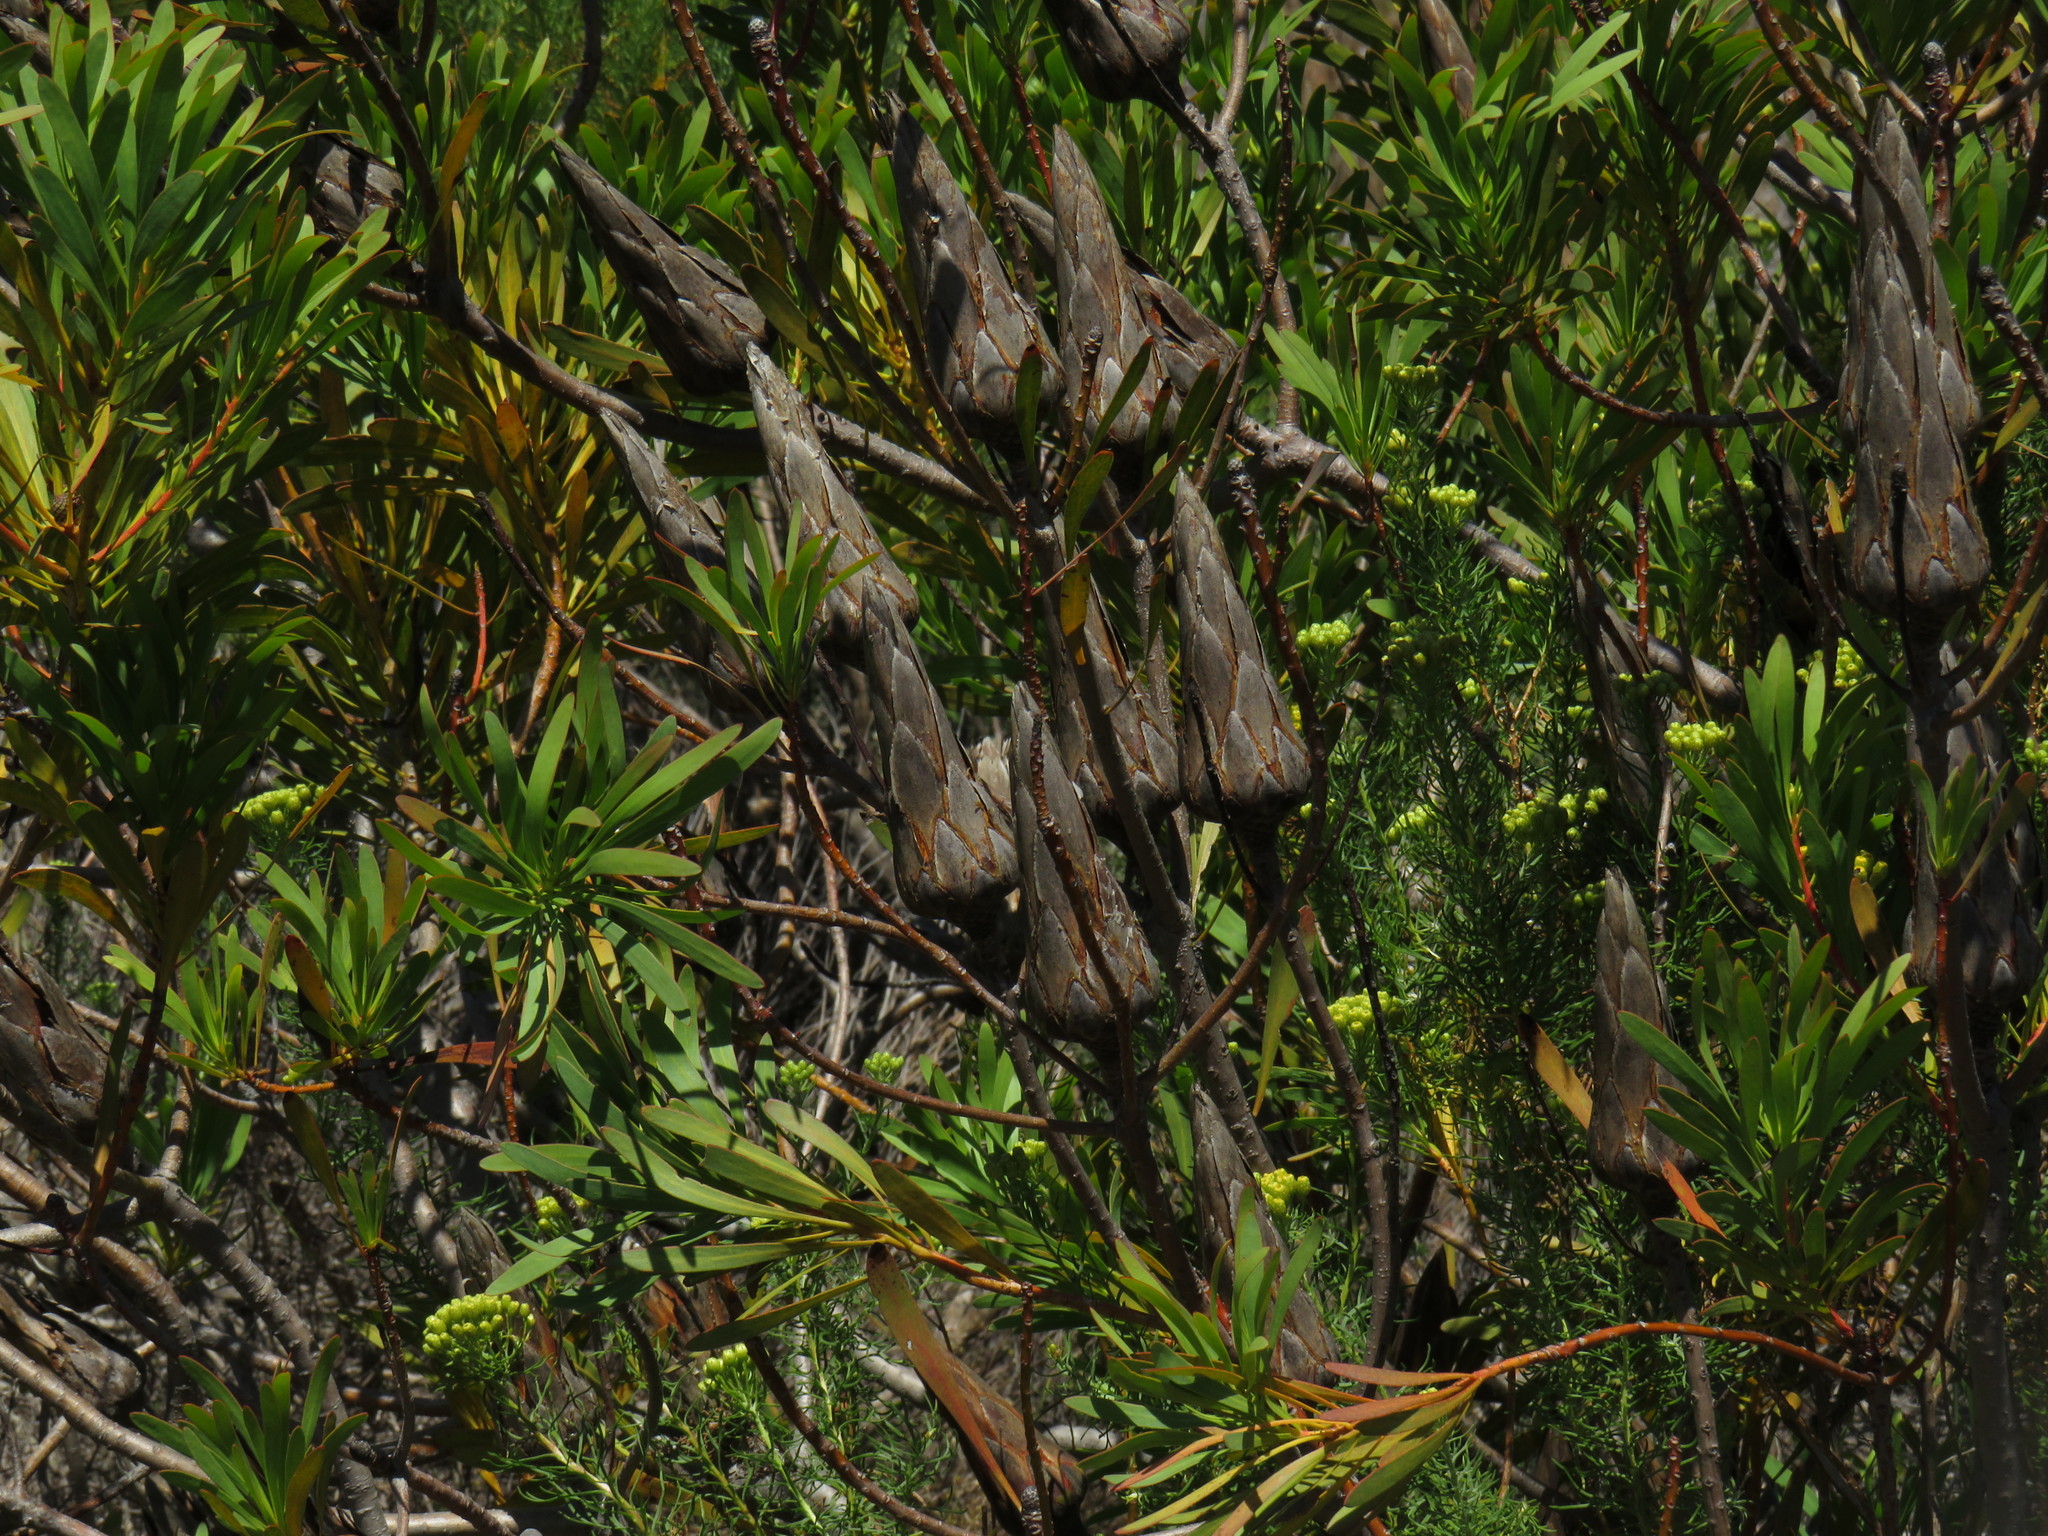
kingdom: Plantae
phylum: Tracheophyta
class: Magnoliopsida
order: Proteales
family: Proteaceae
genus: Protea
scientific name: Protea repens
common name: Sugarbush
